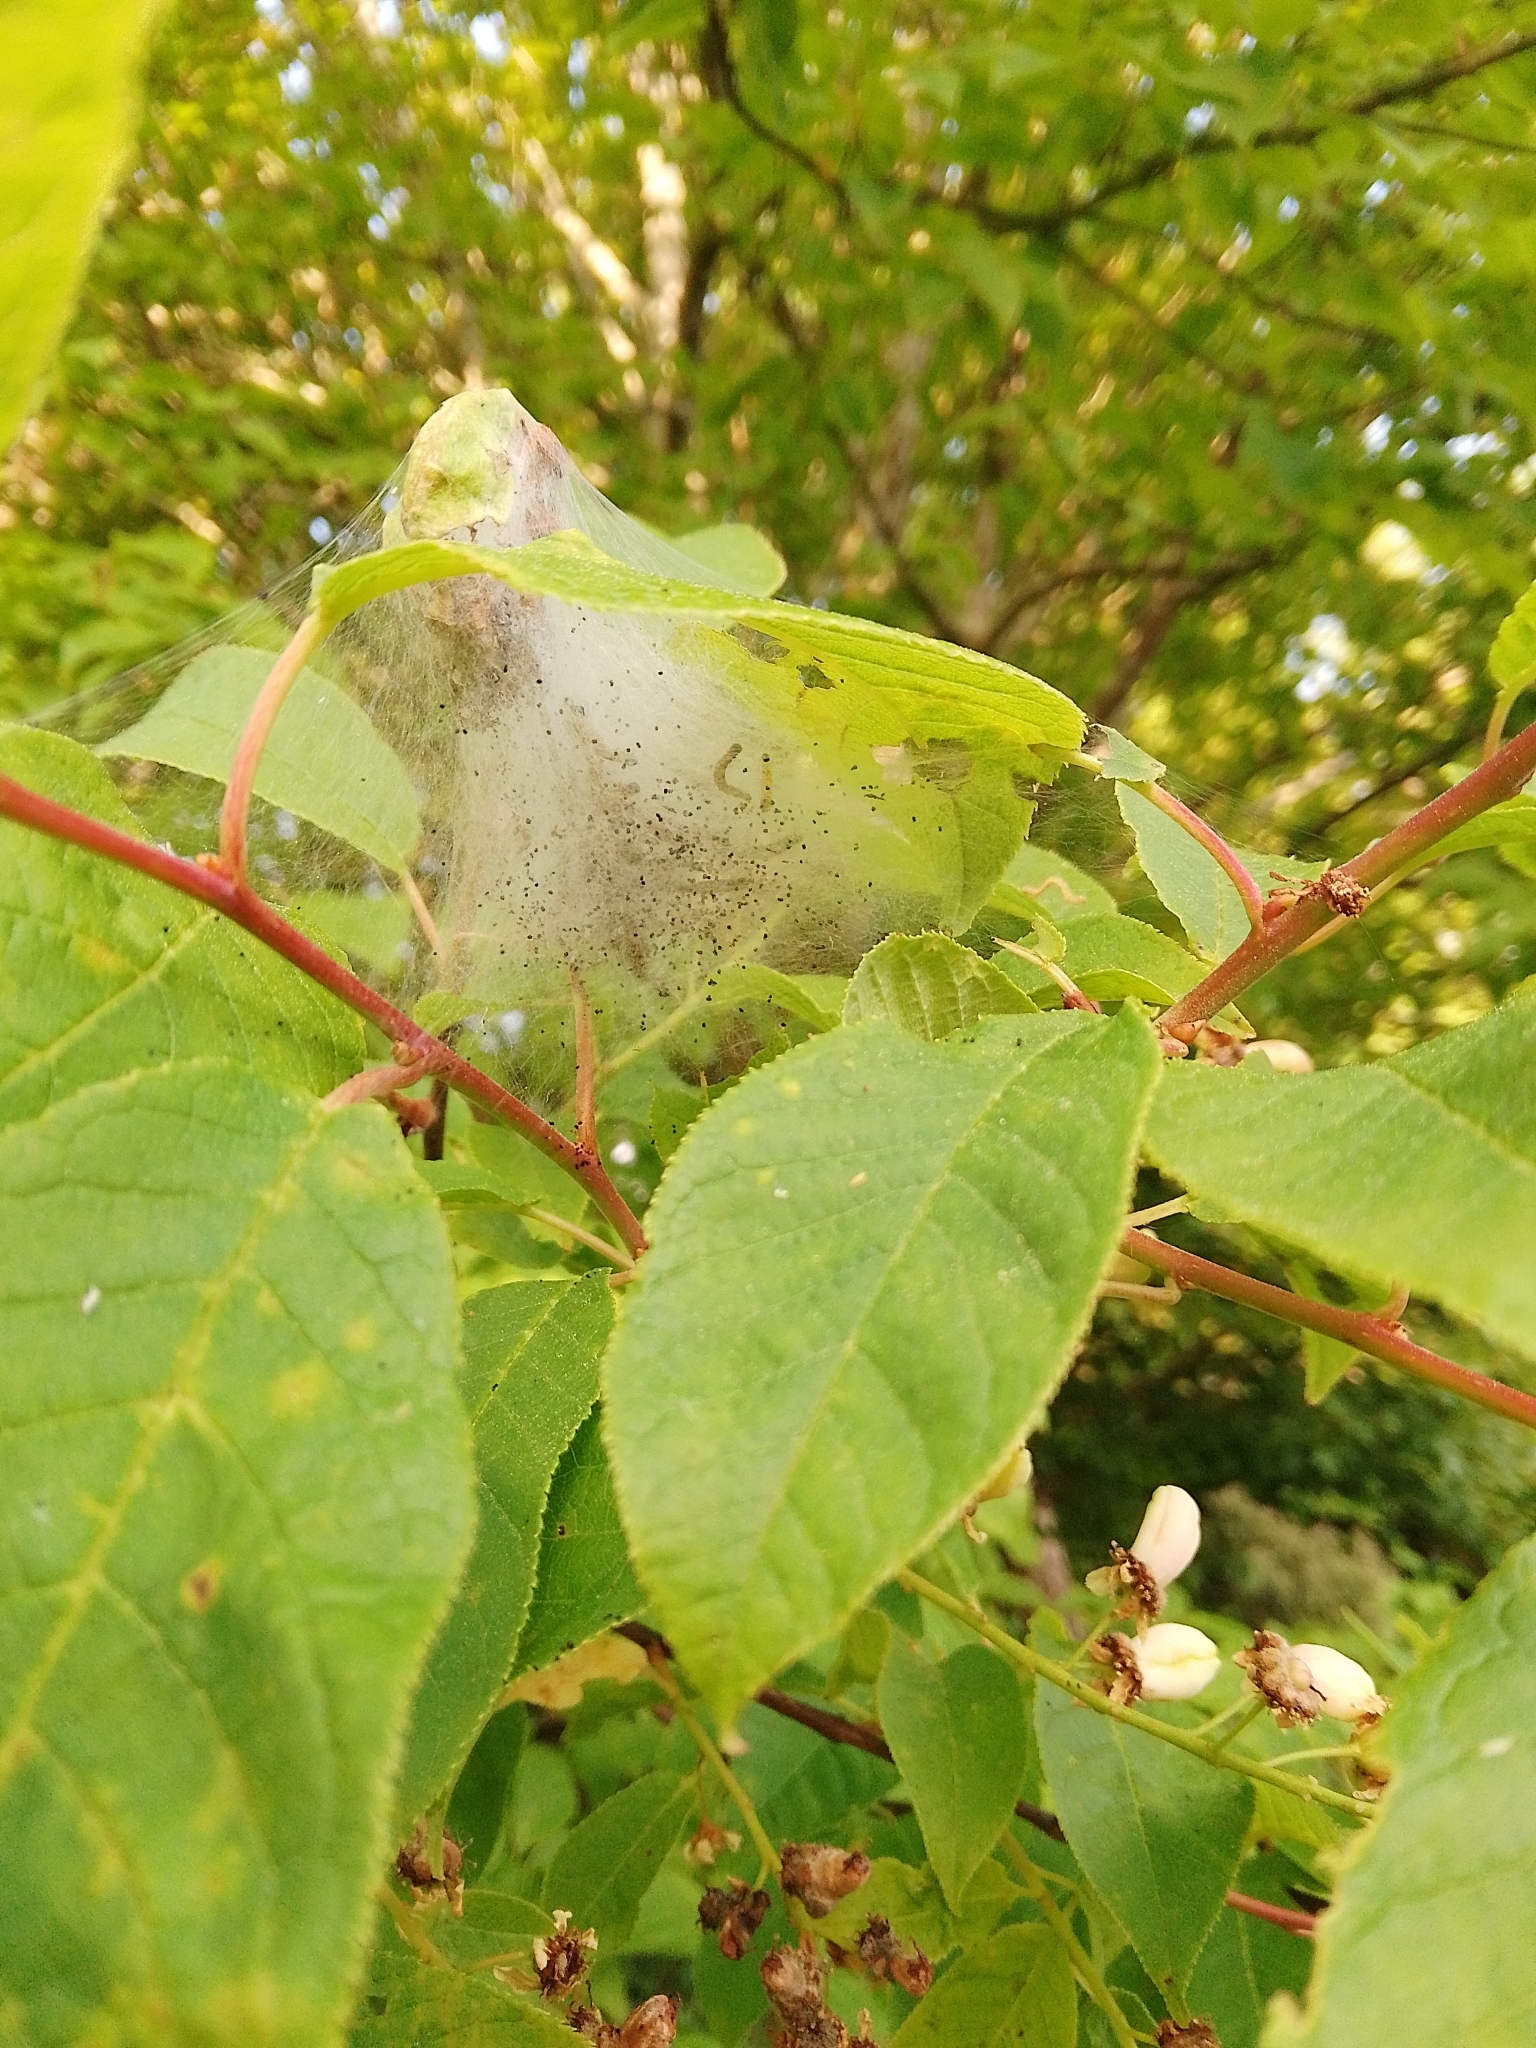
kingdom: Animalia
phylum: Arthropoda
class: Insecta
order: Lepidoptera
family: Yponomeutidae
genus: Yponomeuta
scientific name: Yponomeuta evonymella
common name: Bird-cherry ermine
